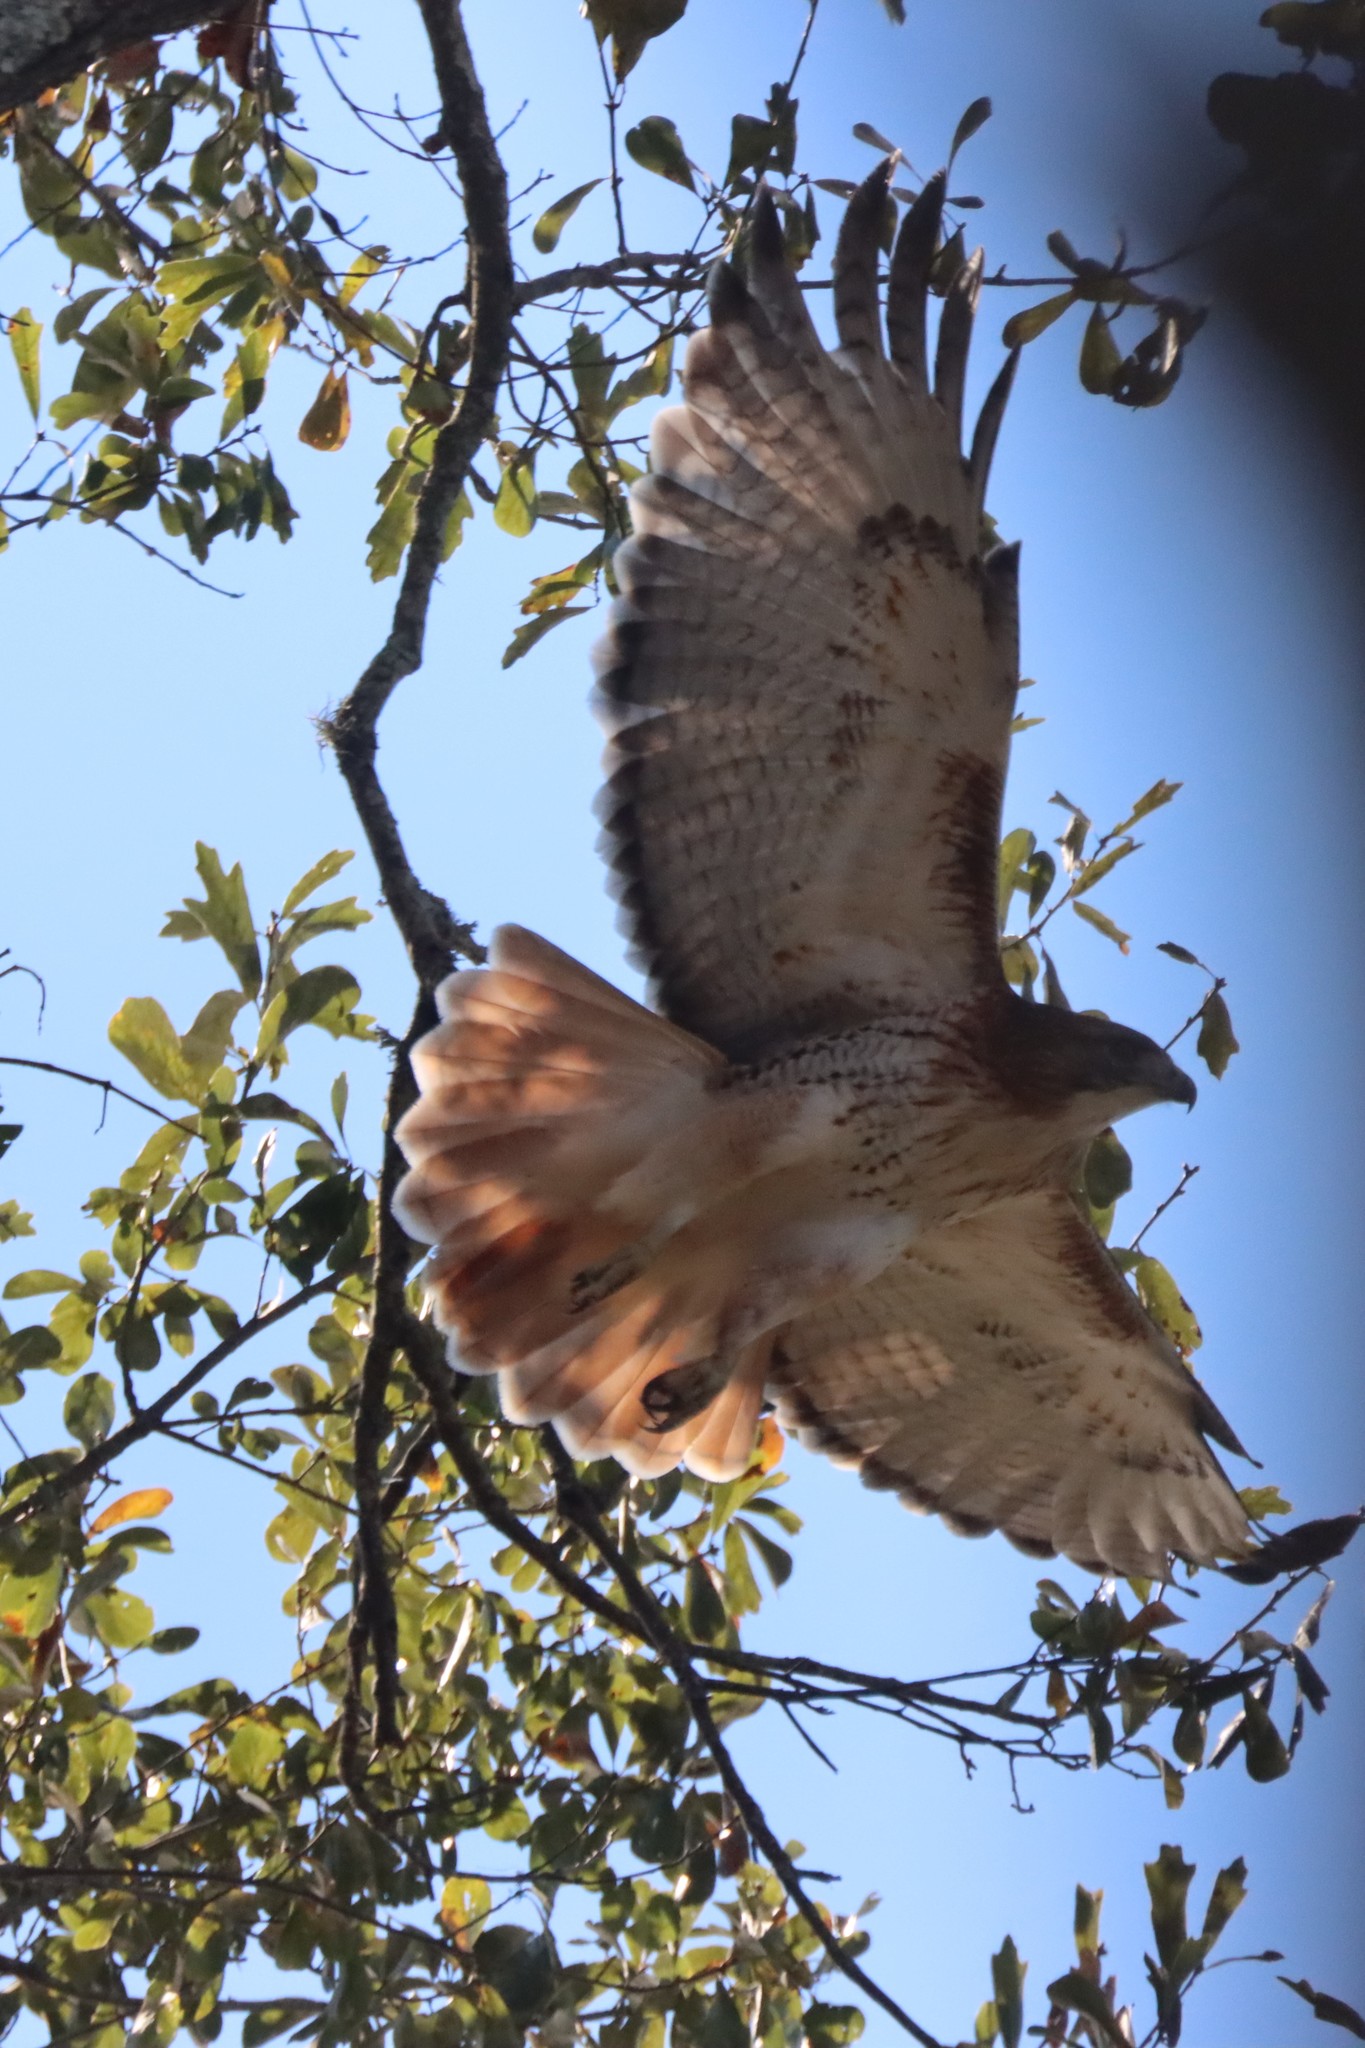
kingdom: Animalia
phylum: Chordata
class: Aves
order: Accipitriformes
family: Accipitridae
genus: Buteo
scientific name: Buteo jamaicensis
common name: Red-tailed hawk
